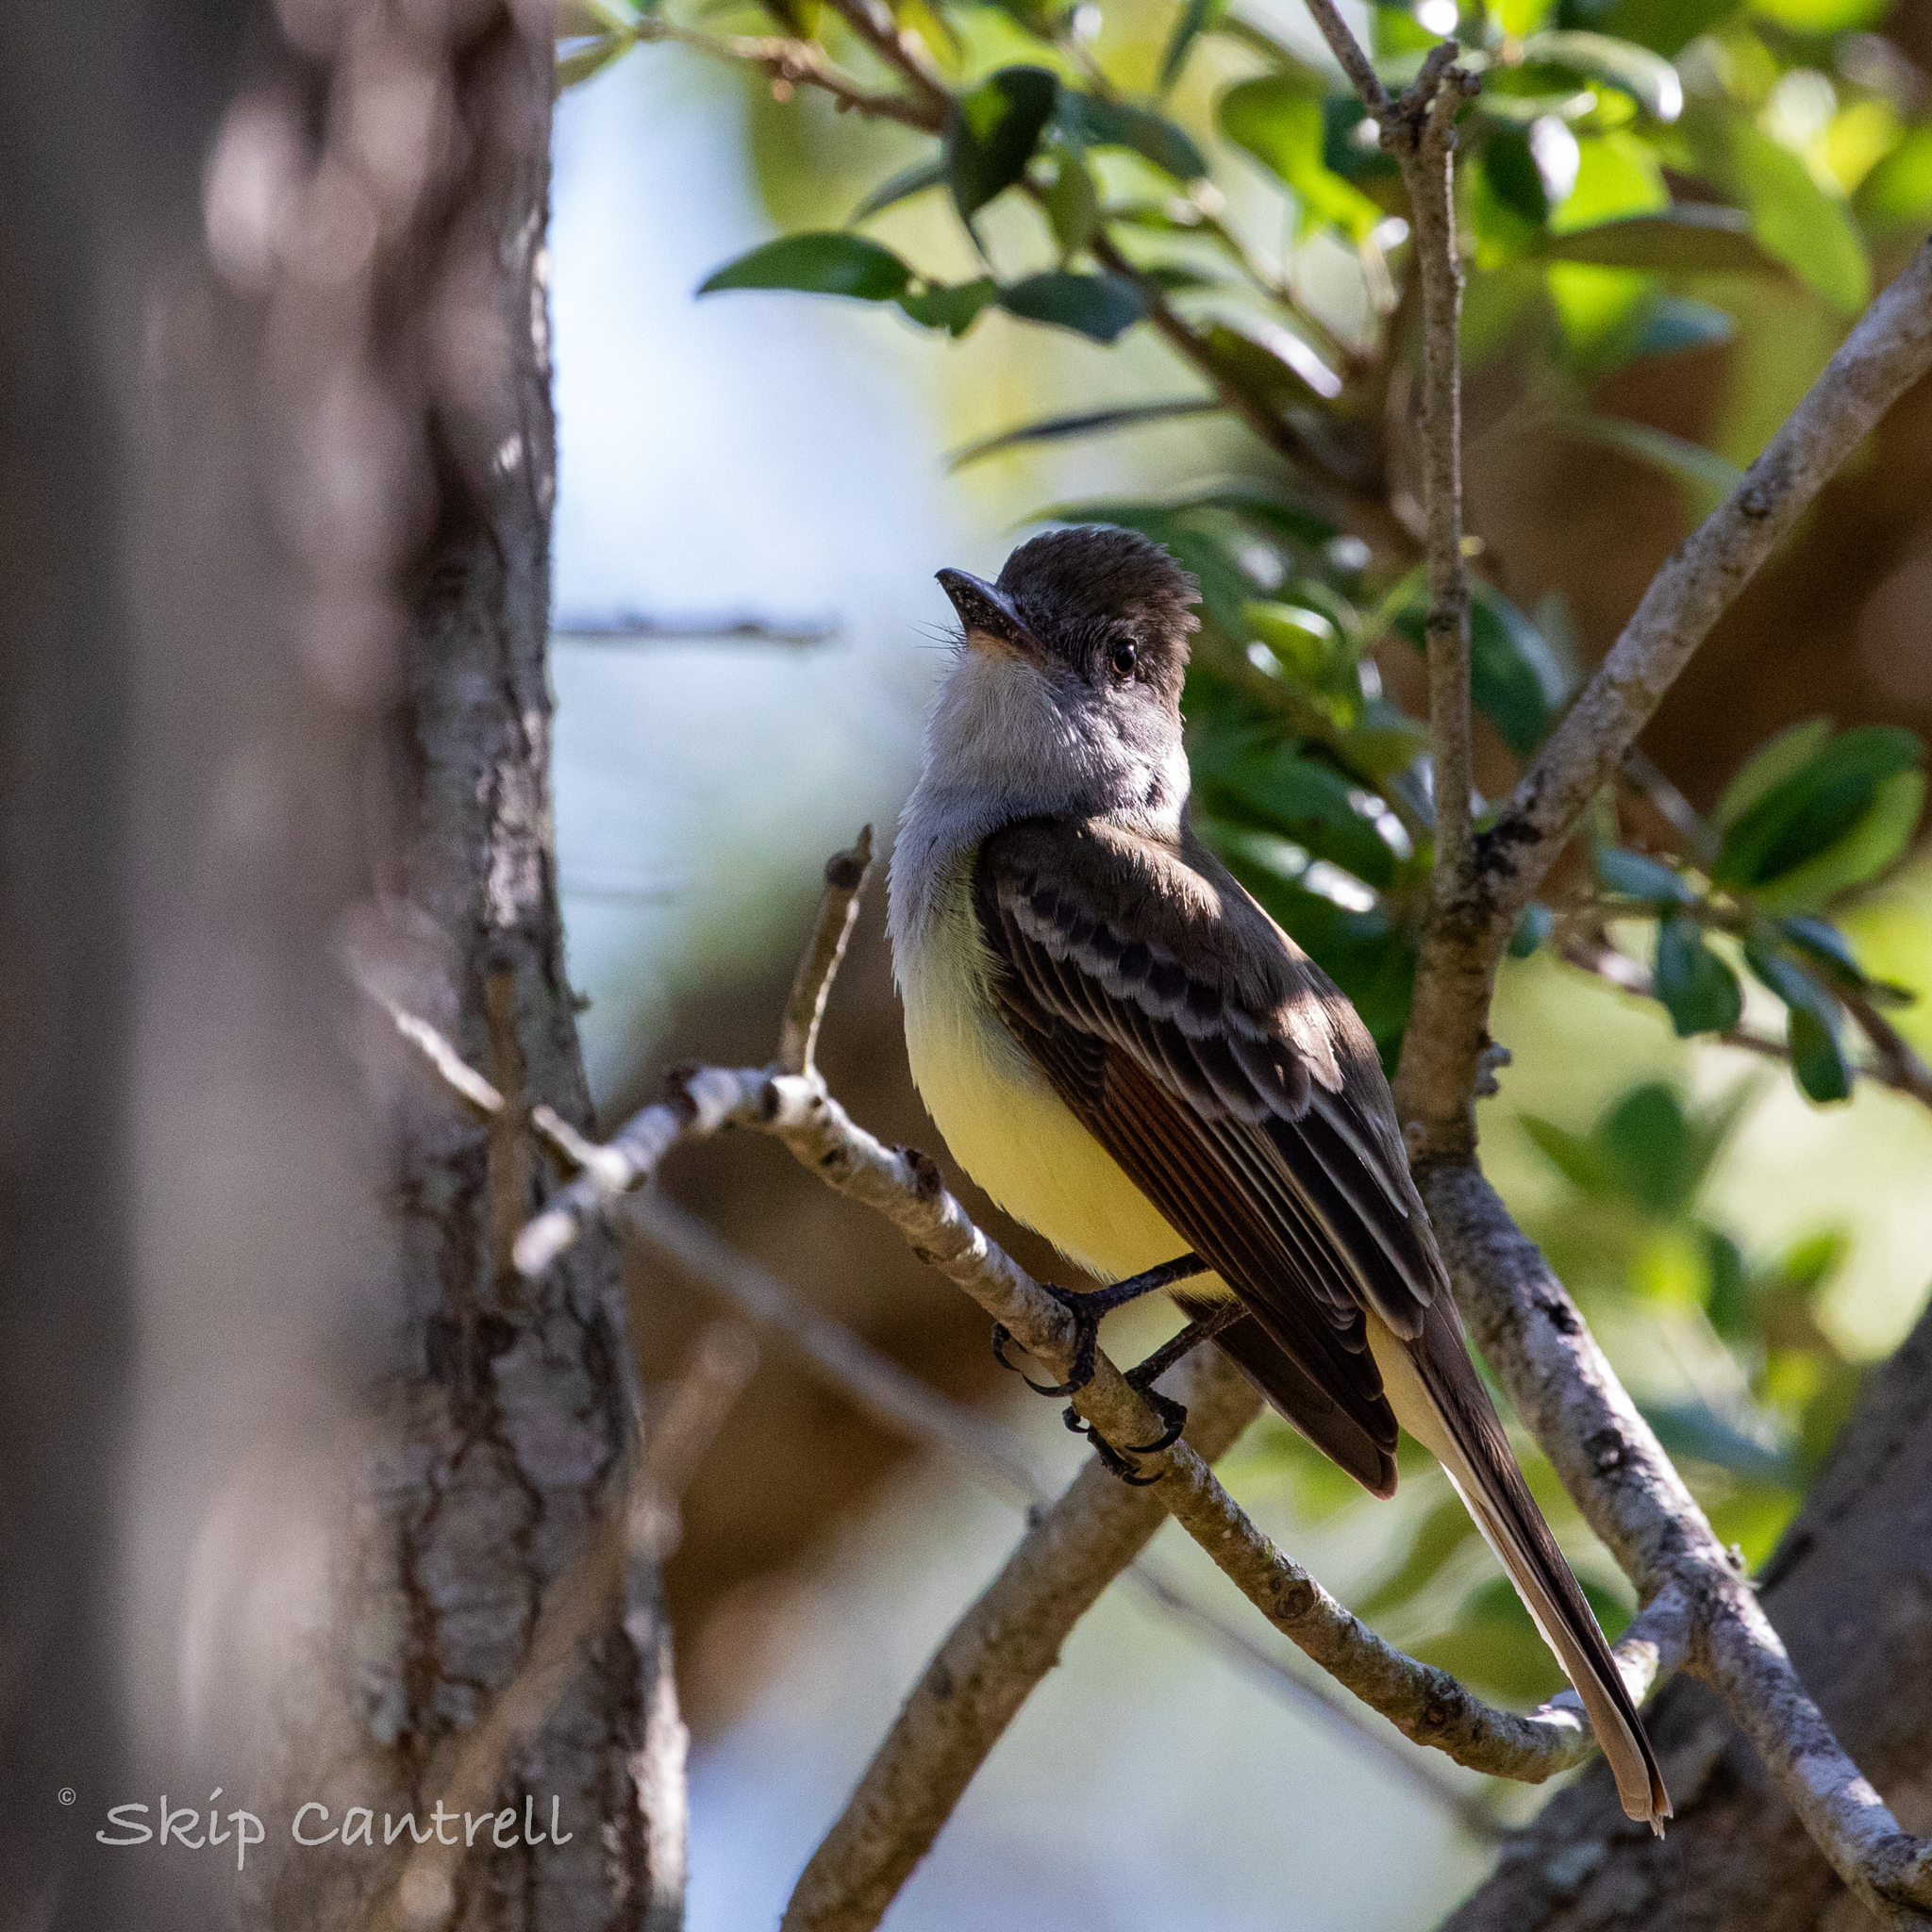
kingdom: Animalia
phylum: Chordata
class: Aves
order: Passeriformes
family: Tyrannidae
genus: Myiarchus
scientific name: Myiarchus tyrannulus
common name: Brown-crested flycatcher
